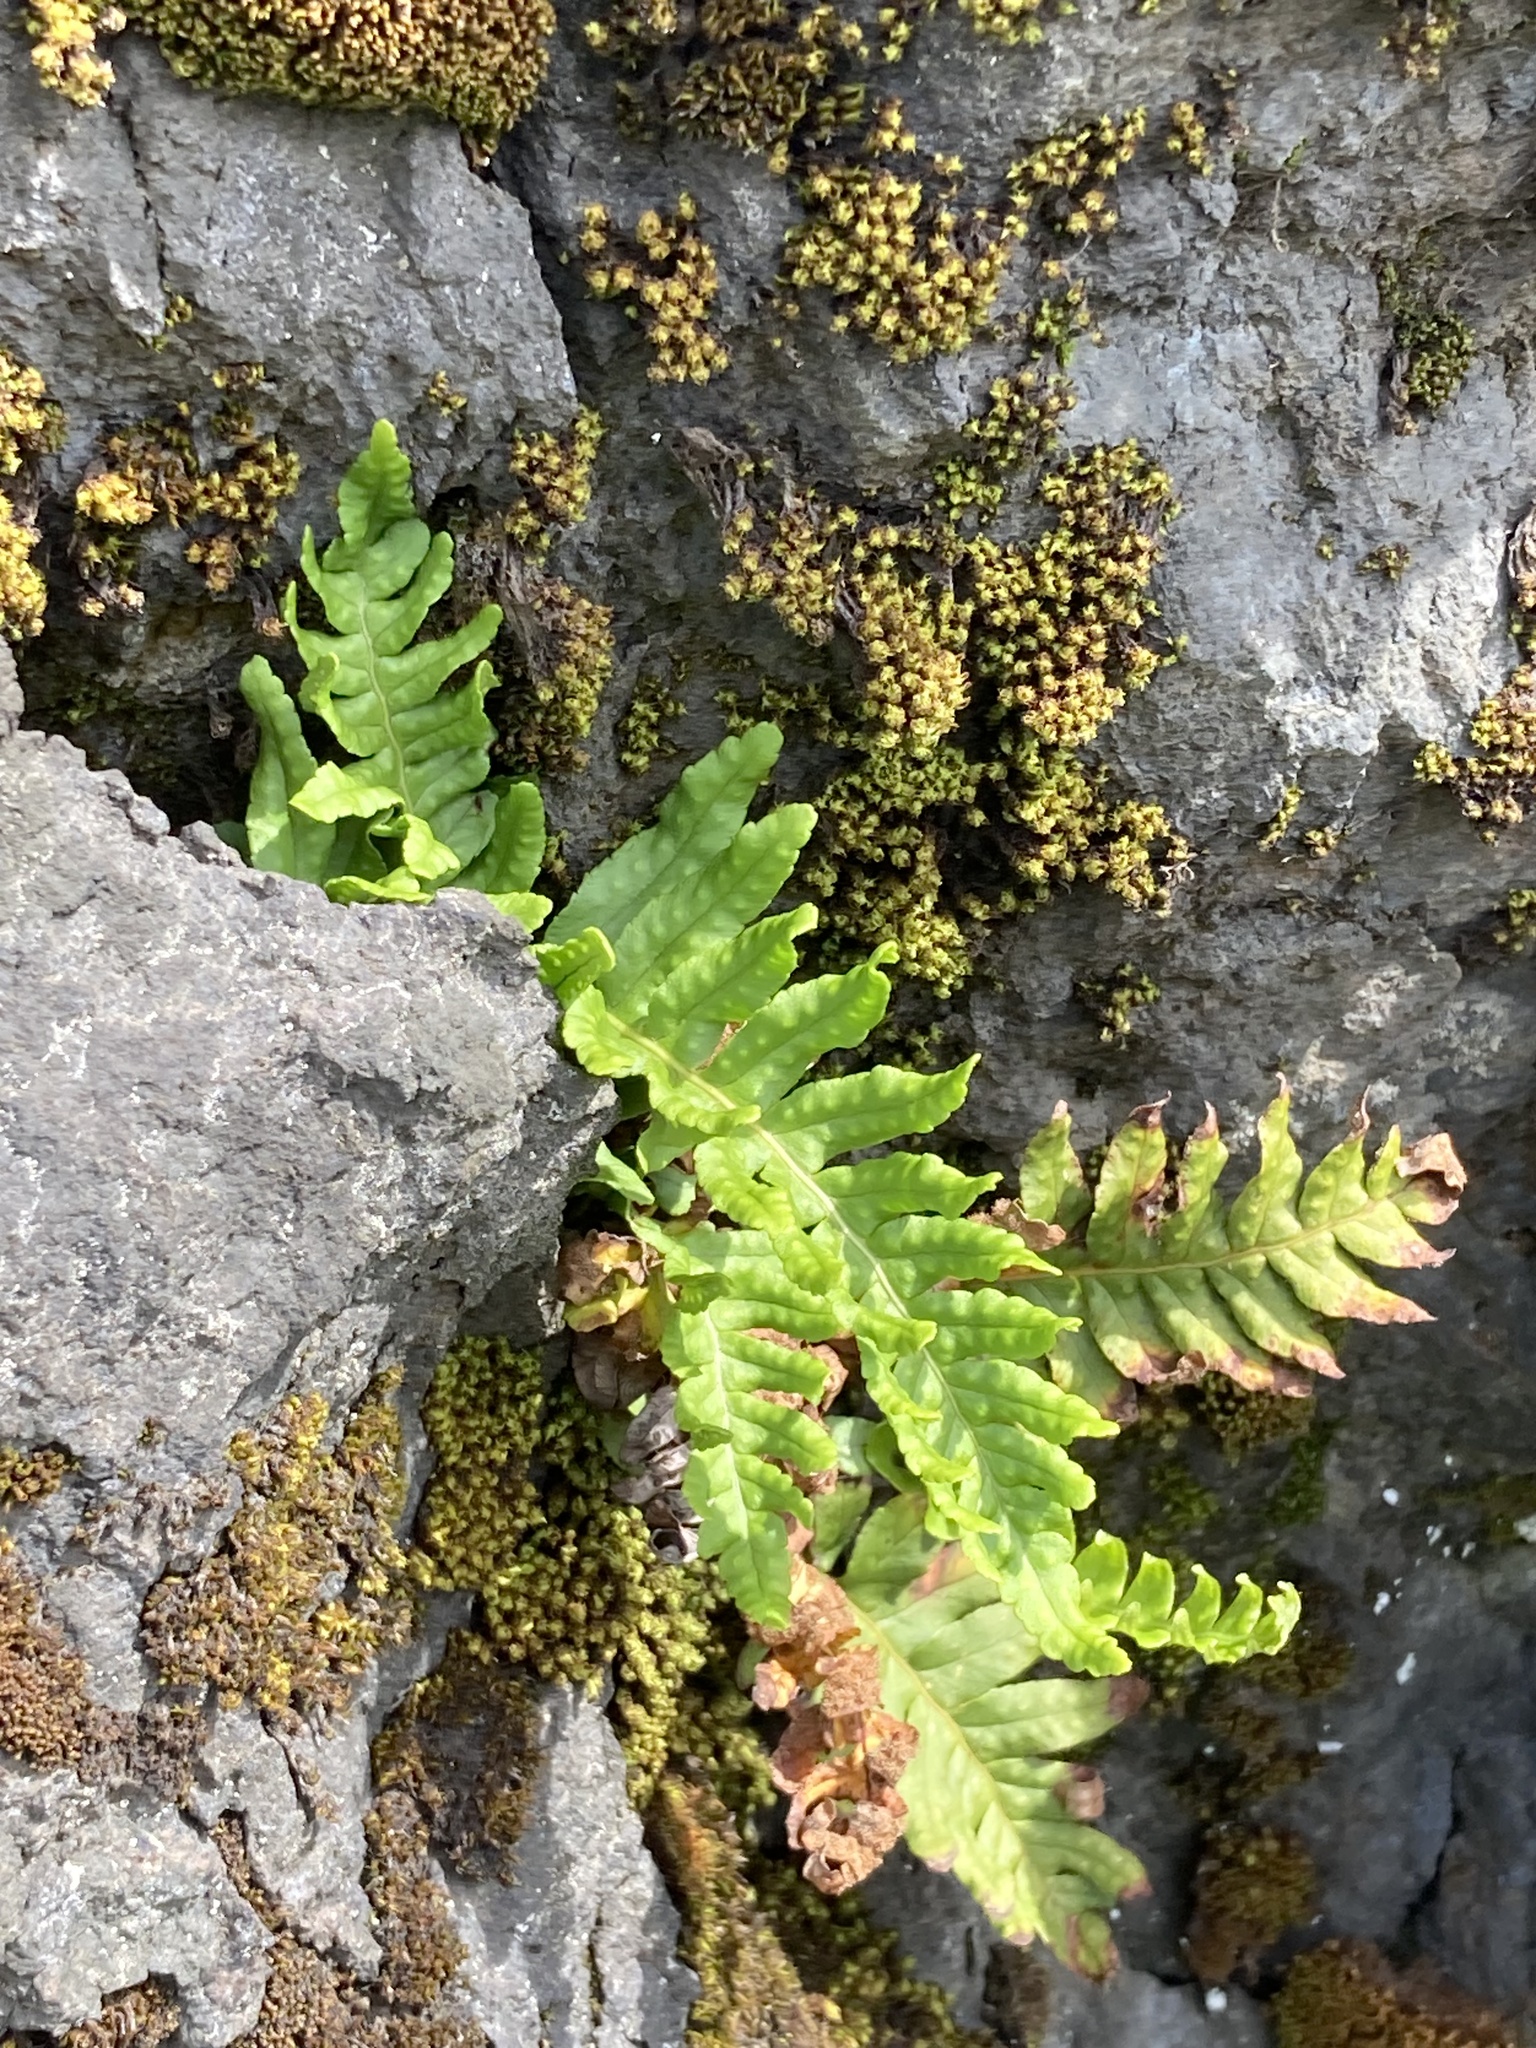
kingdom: Plantae
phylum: Tracheophyta
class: Polypodiopsida
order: Polypodiales
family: Polypodiaceae
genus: Polypodium
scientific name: Polypodium vulgare
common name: Common polypody
